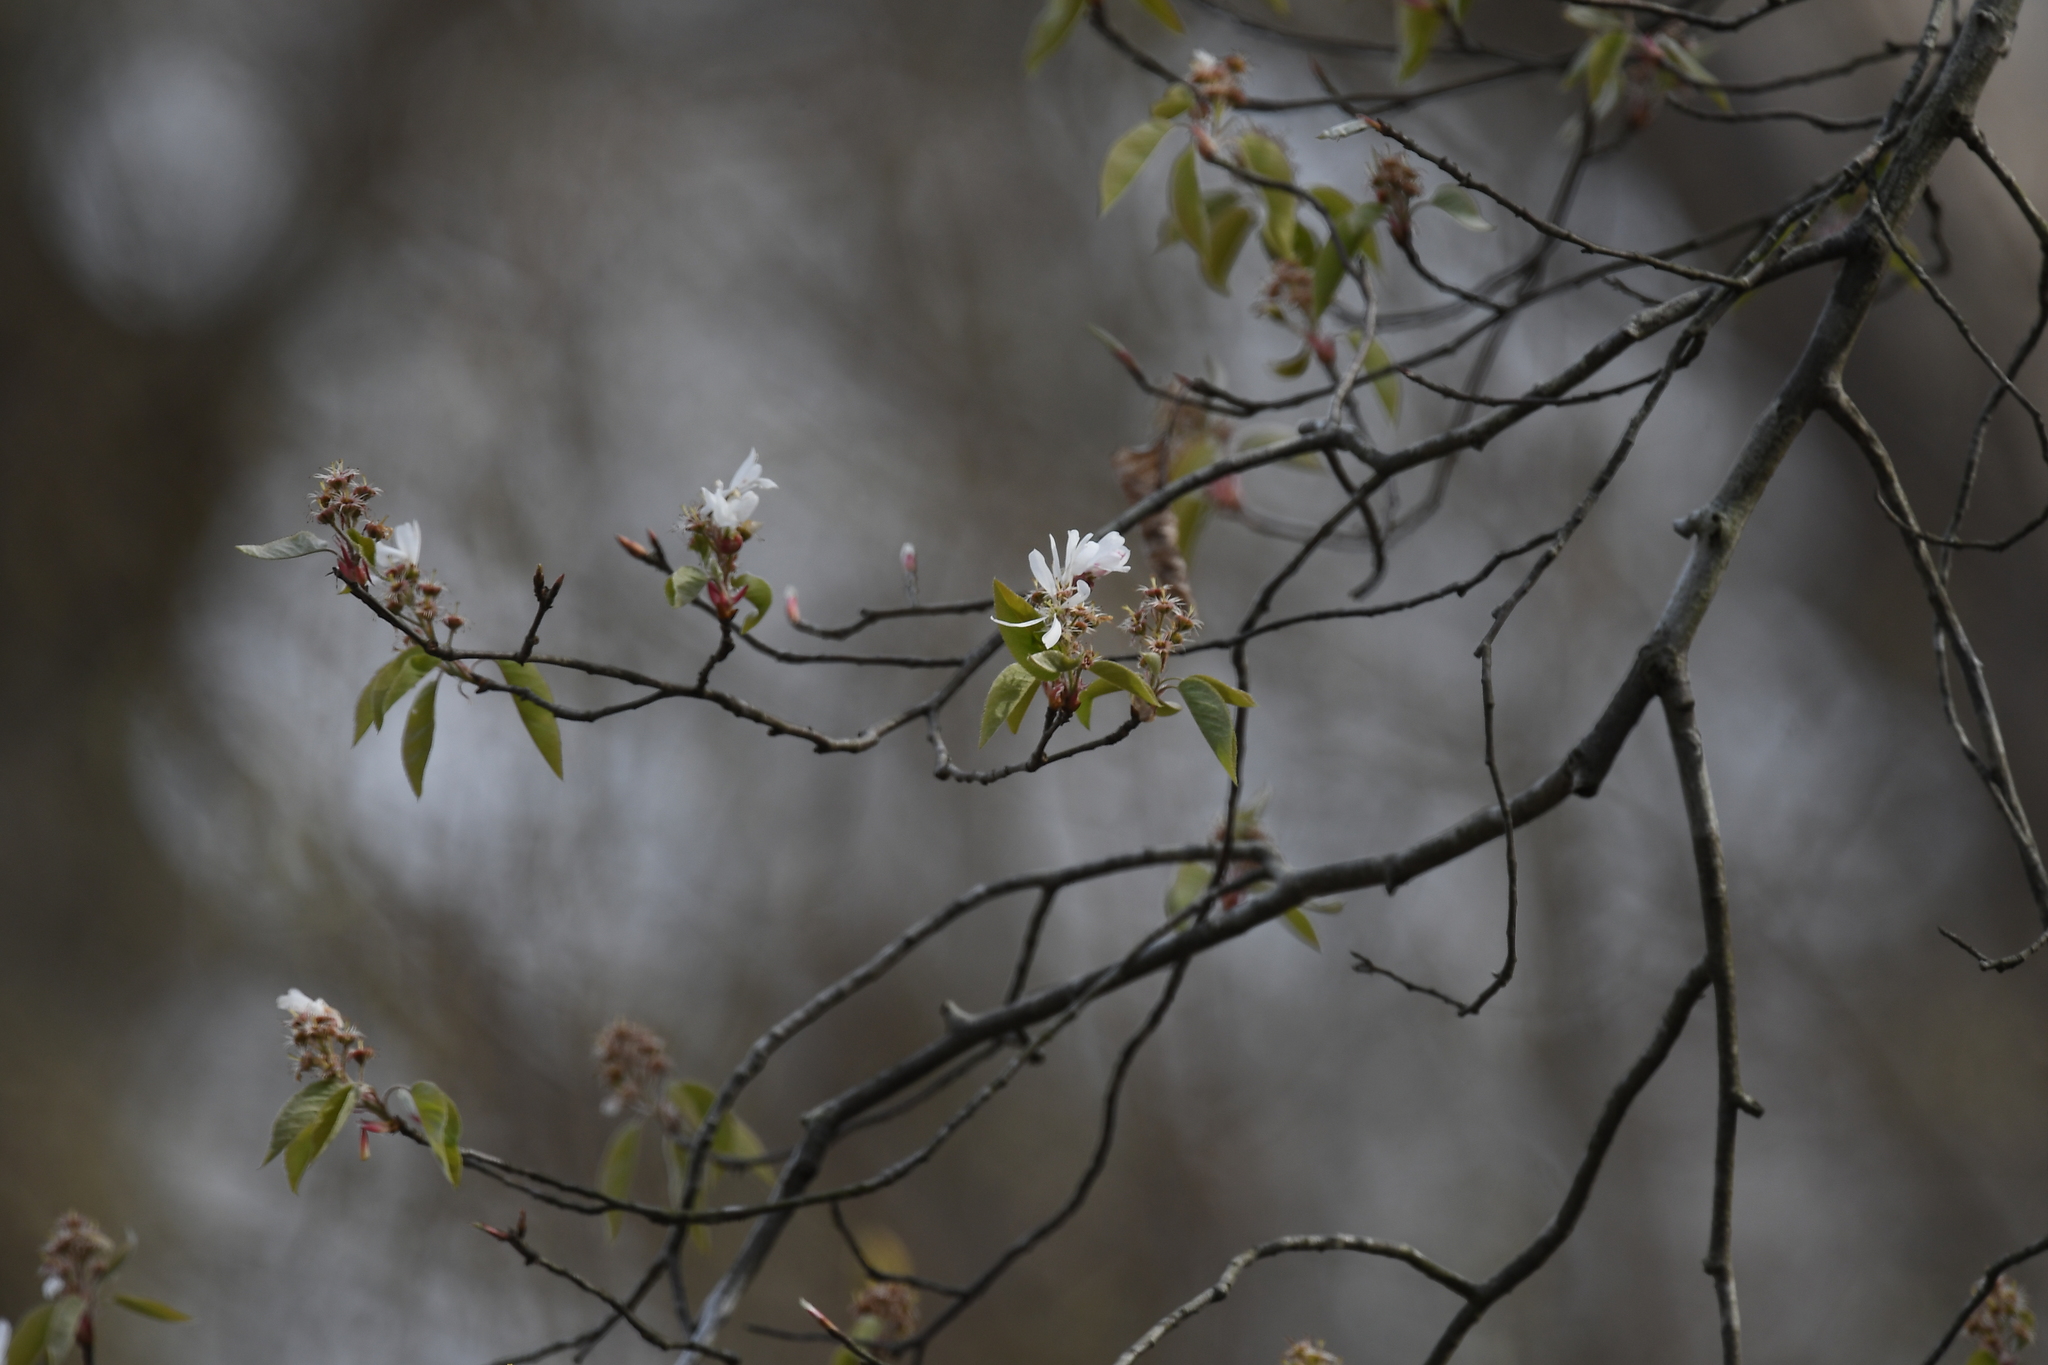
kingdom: Plantae
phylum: Tracheophyta
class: Magnoliopsida
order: Rosales
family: Rosaceae
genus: Amelanchier
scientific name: Amelanchier arborea
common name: Downy serviceberry
